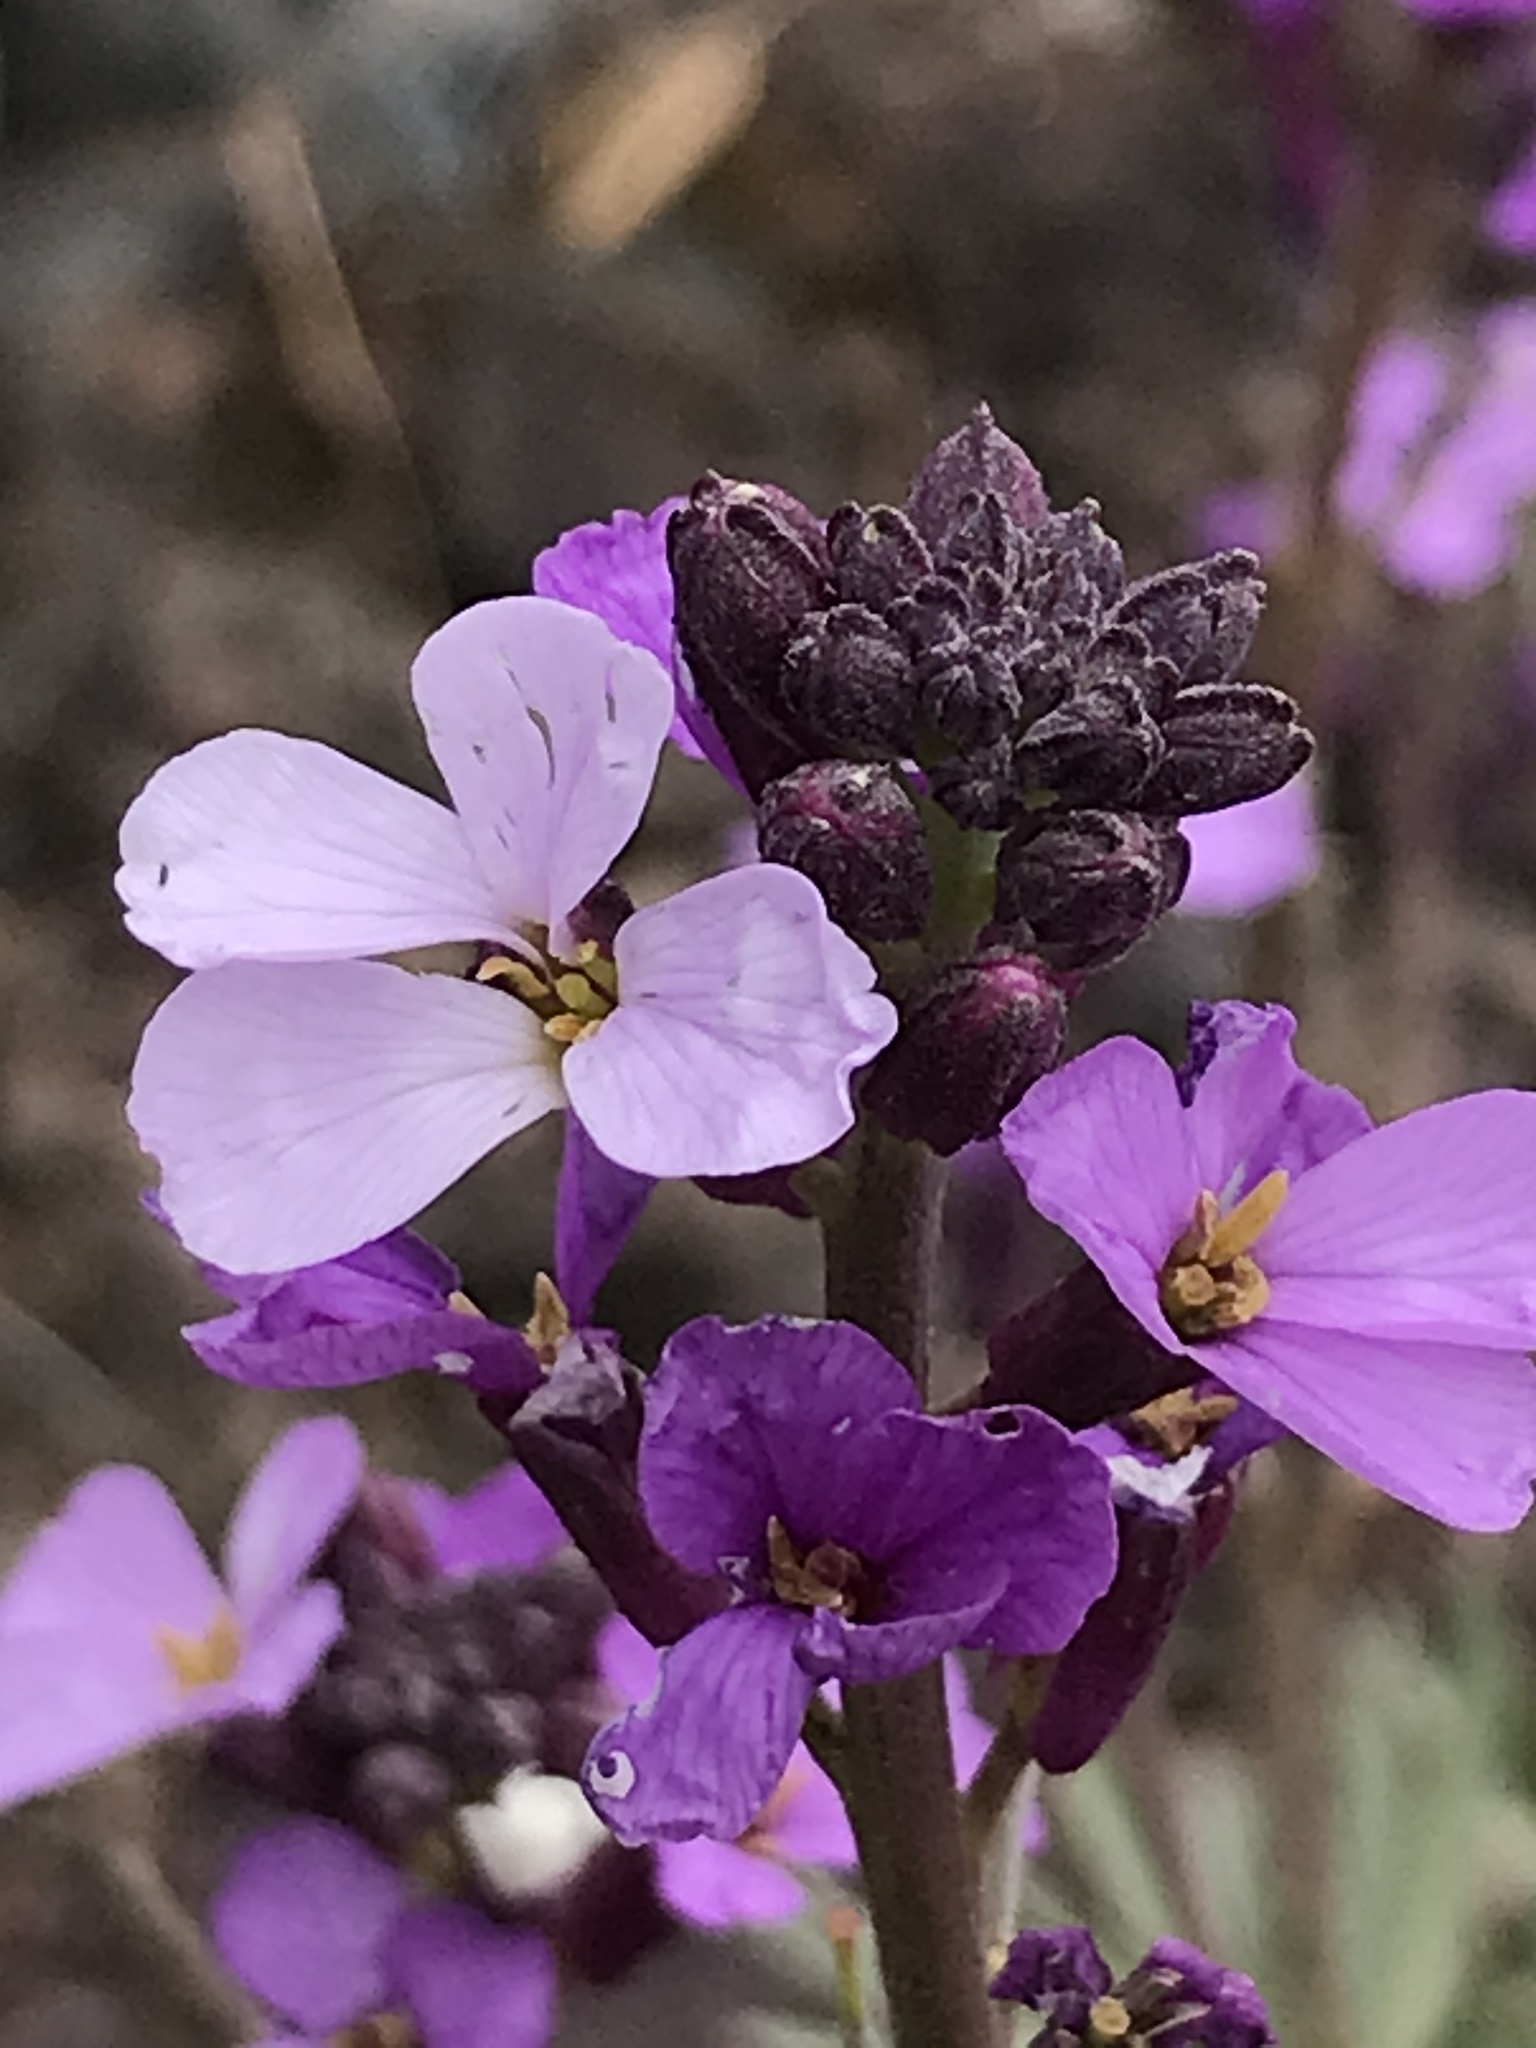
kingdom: Plantae
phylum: Tracheophyta
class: Magnoliopsida
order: Brassicales
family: Brassicaceae
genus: Erysimum
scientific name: Erysimum bicolor
